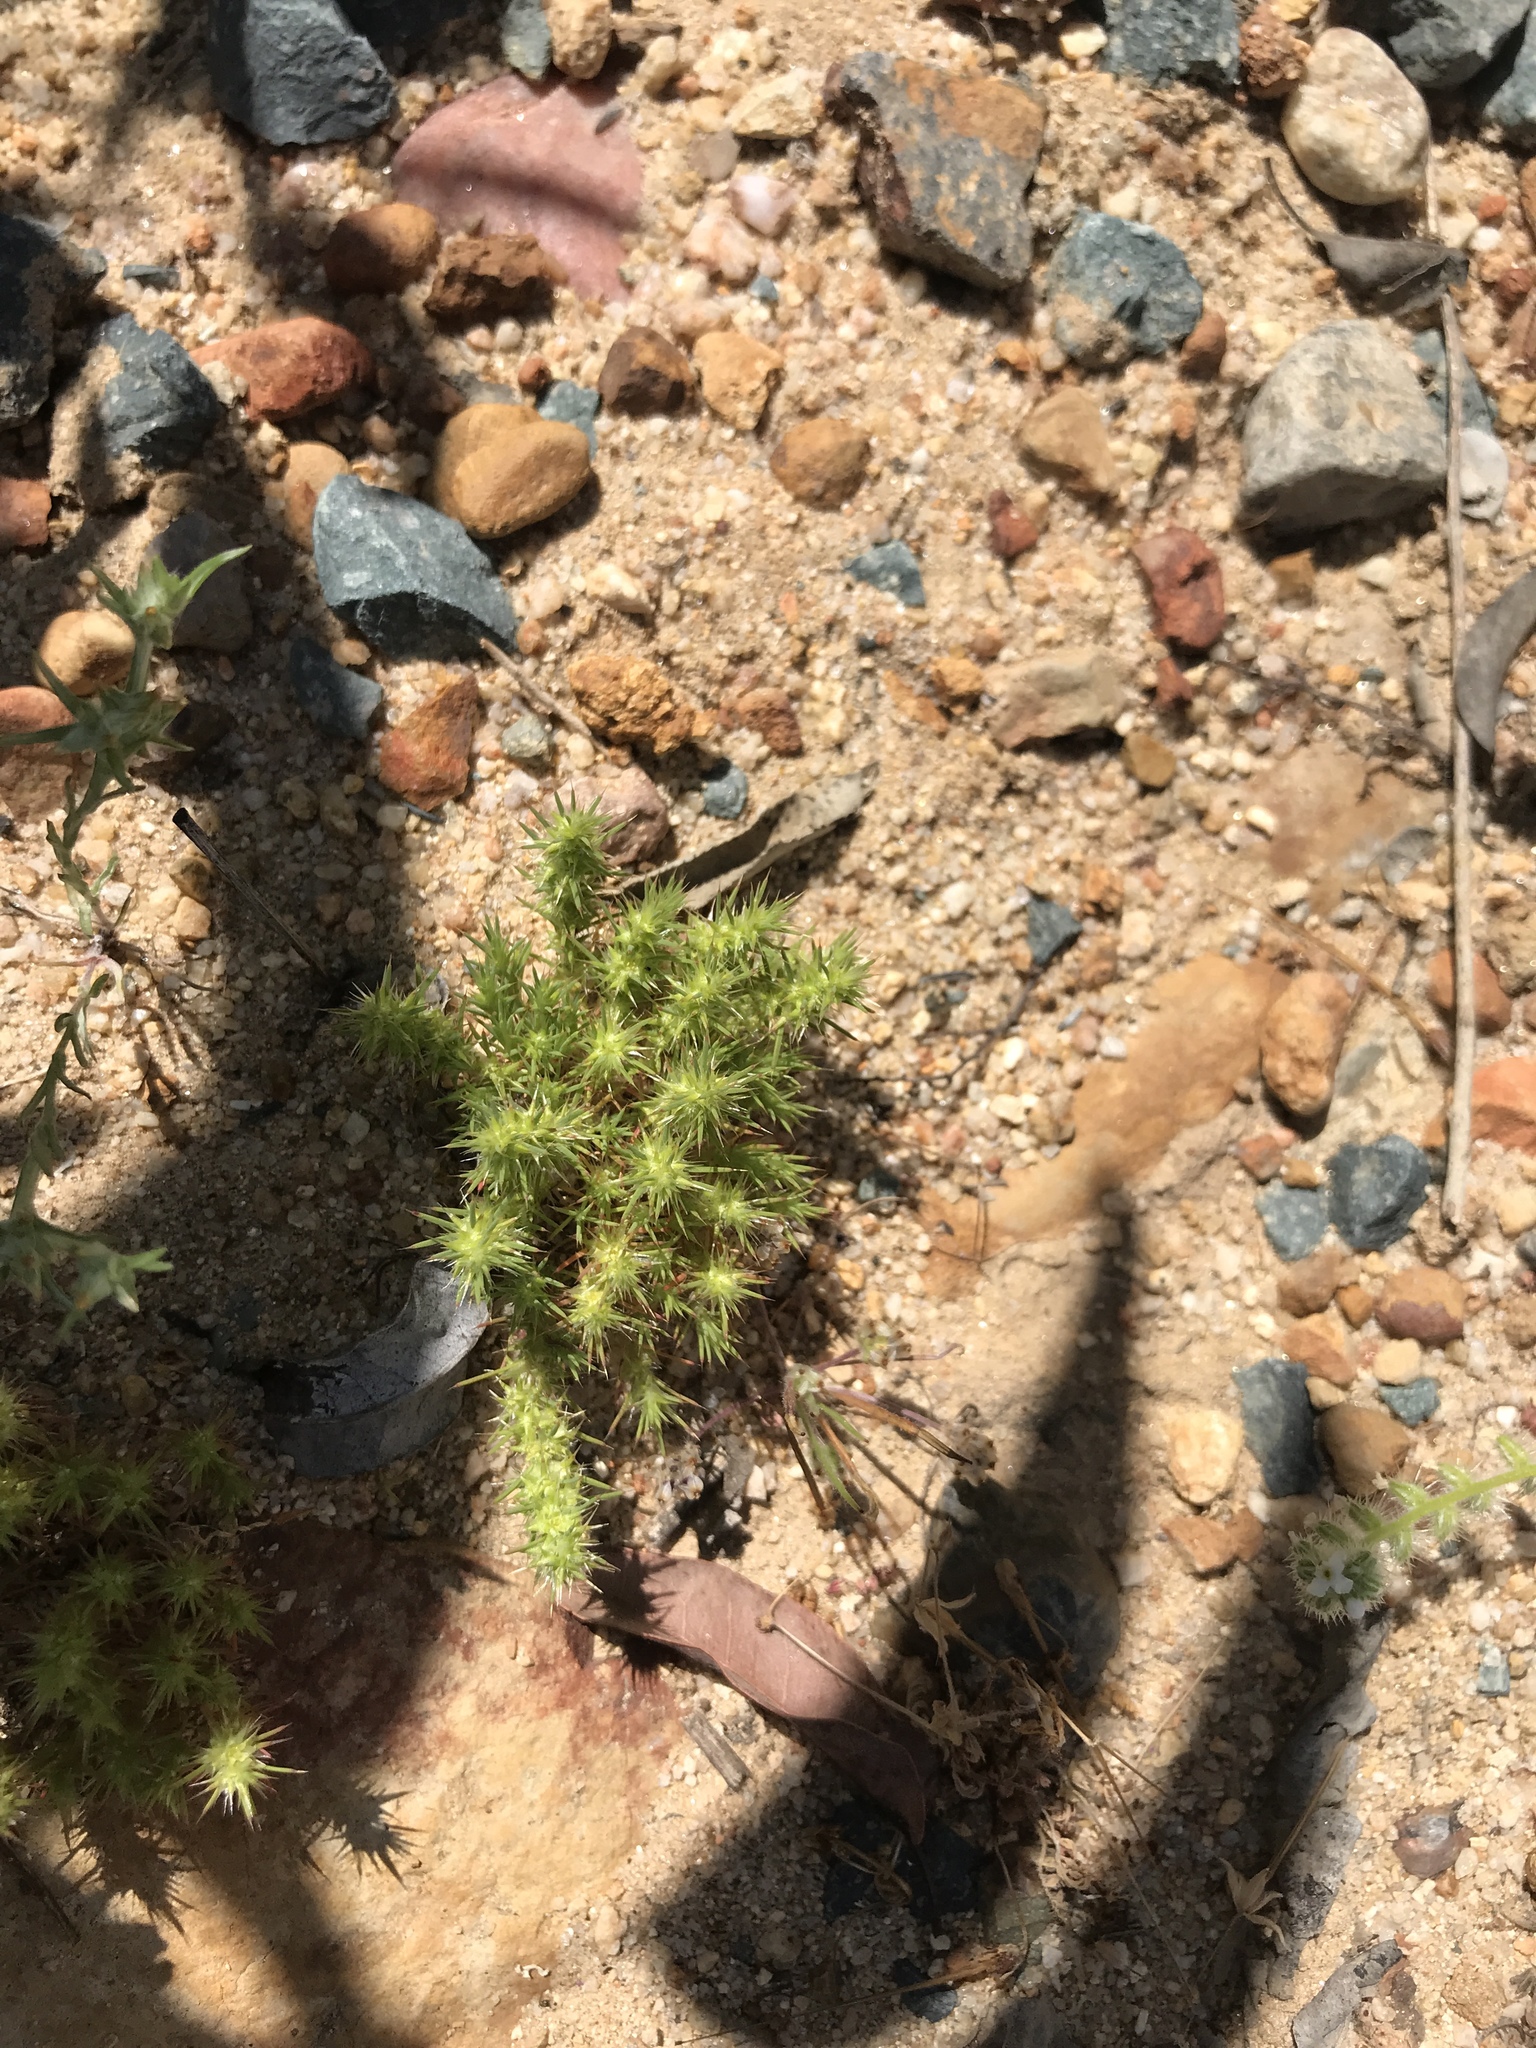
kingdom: Plantae
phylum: Tracheophyta
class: Magnoliopsida
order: Caryophyllales
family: Caryophyllaceae
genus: Cardionema
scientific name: Cardionema ramosissima
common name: Sandcarpet
